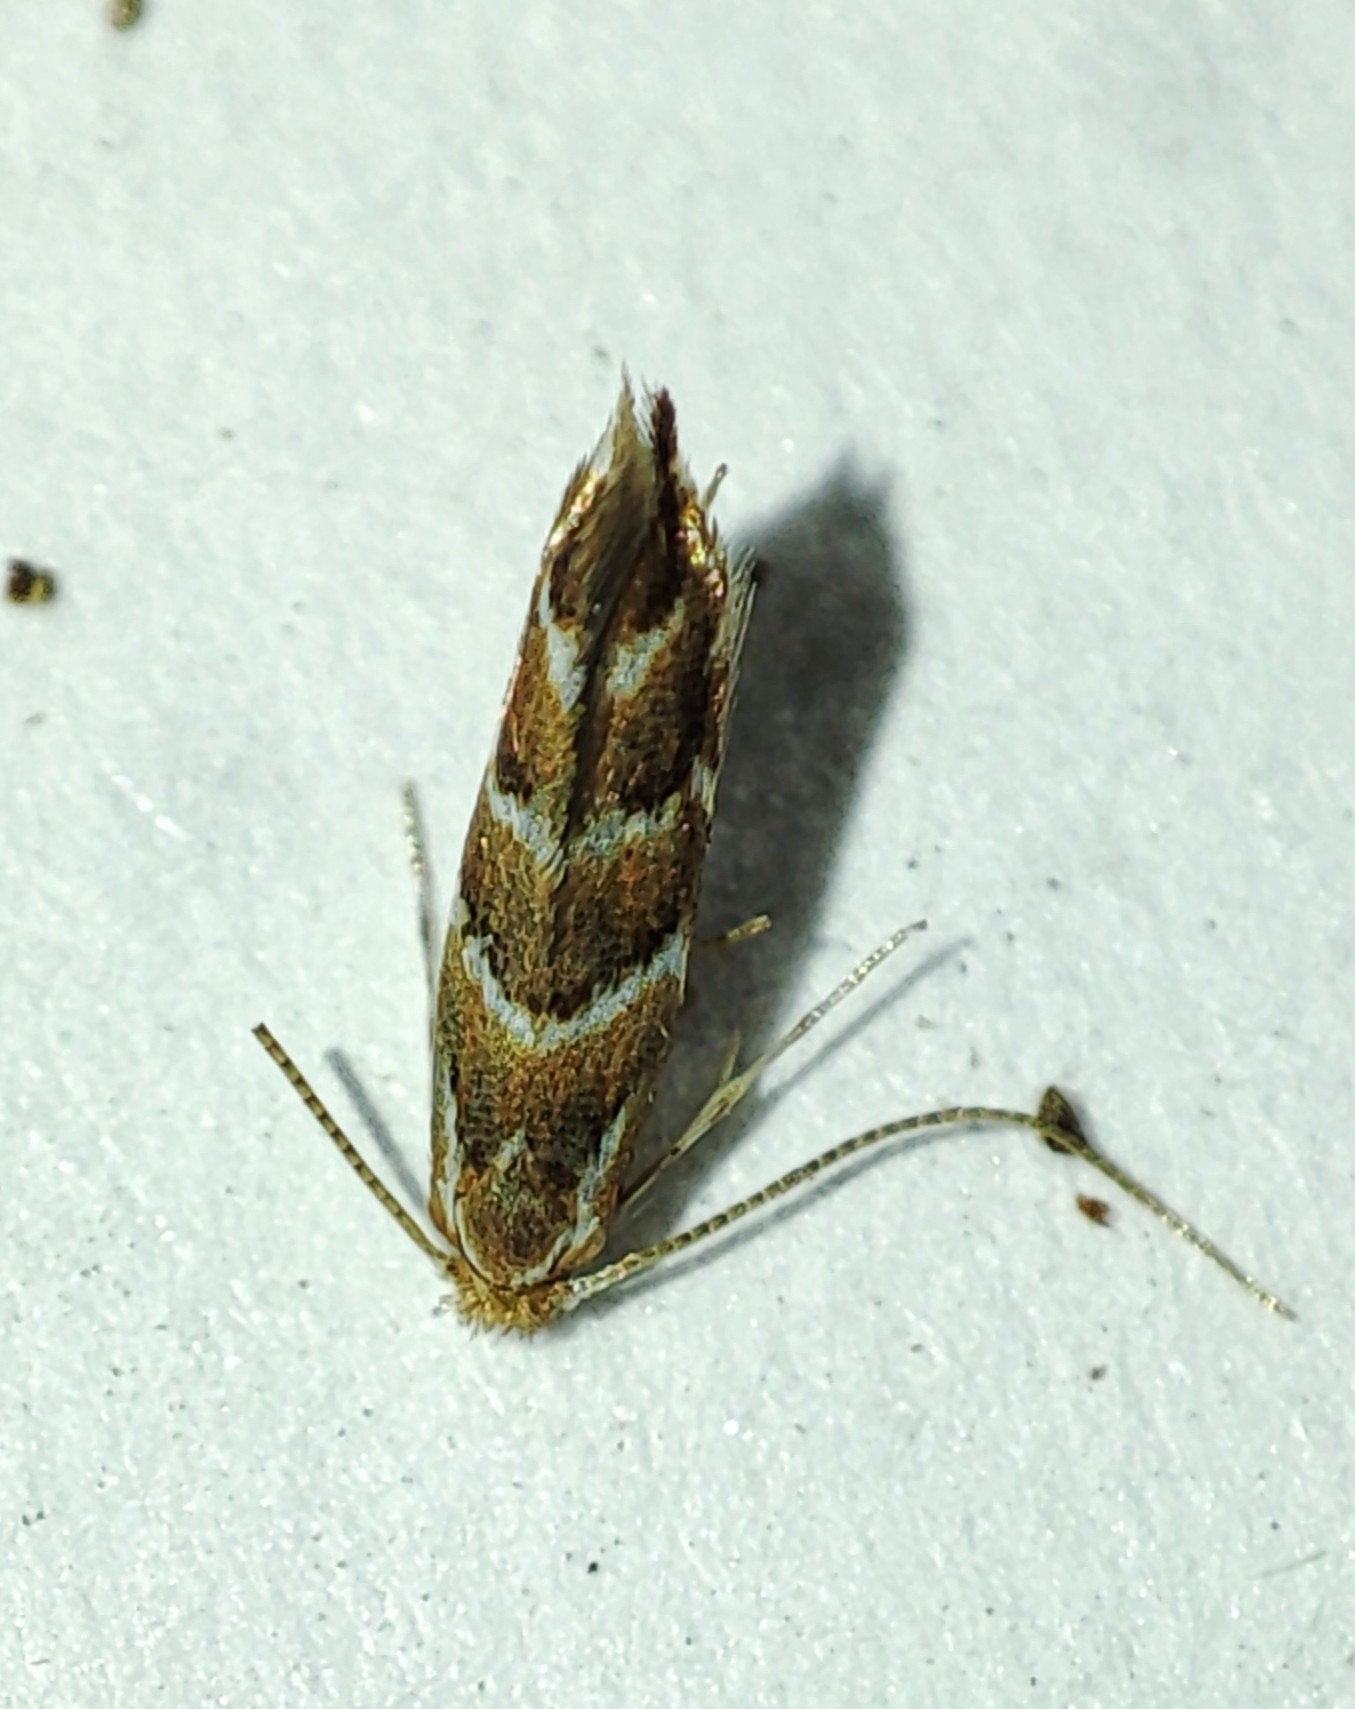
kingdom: Animalia
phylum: Arthropoda
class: Insecta
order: Lepidoptera
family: Gracillariidae
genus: Cameraria
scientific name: Cameraria ohridella
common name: Horse-chestnut leaf-miner
